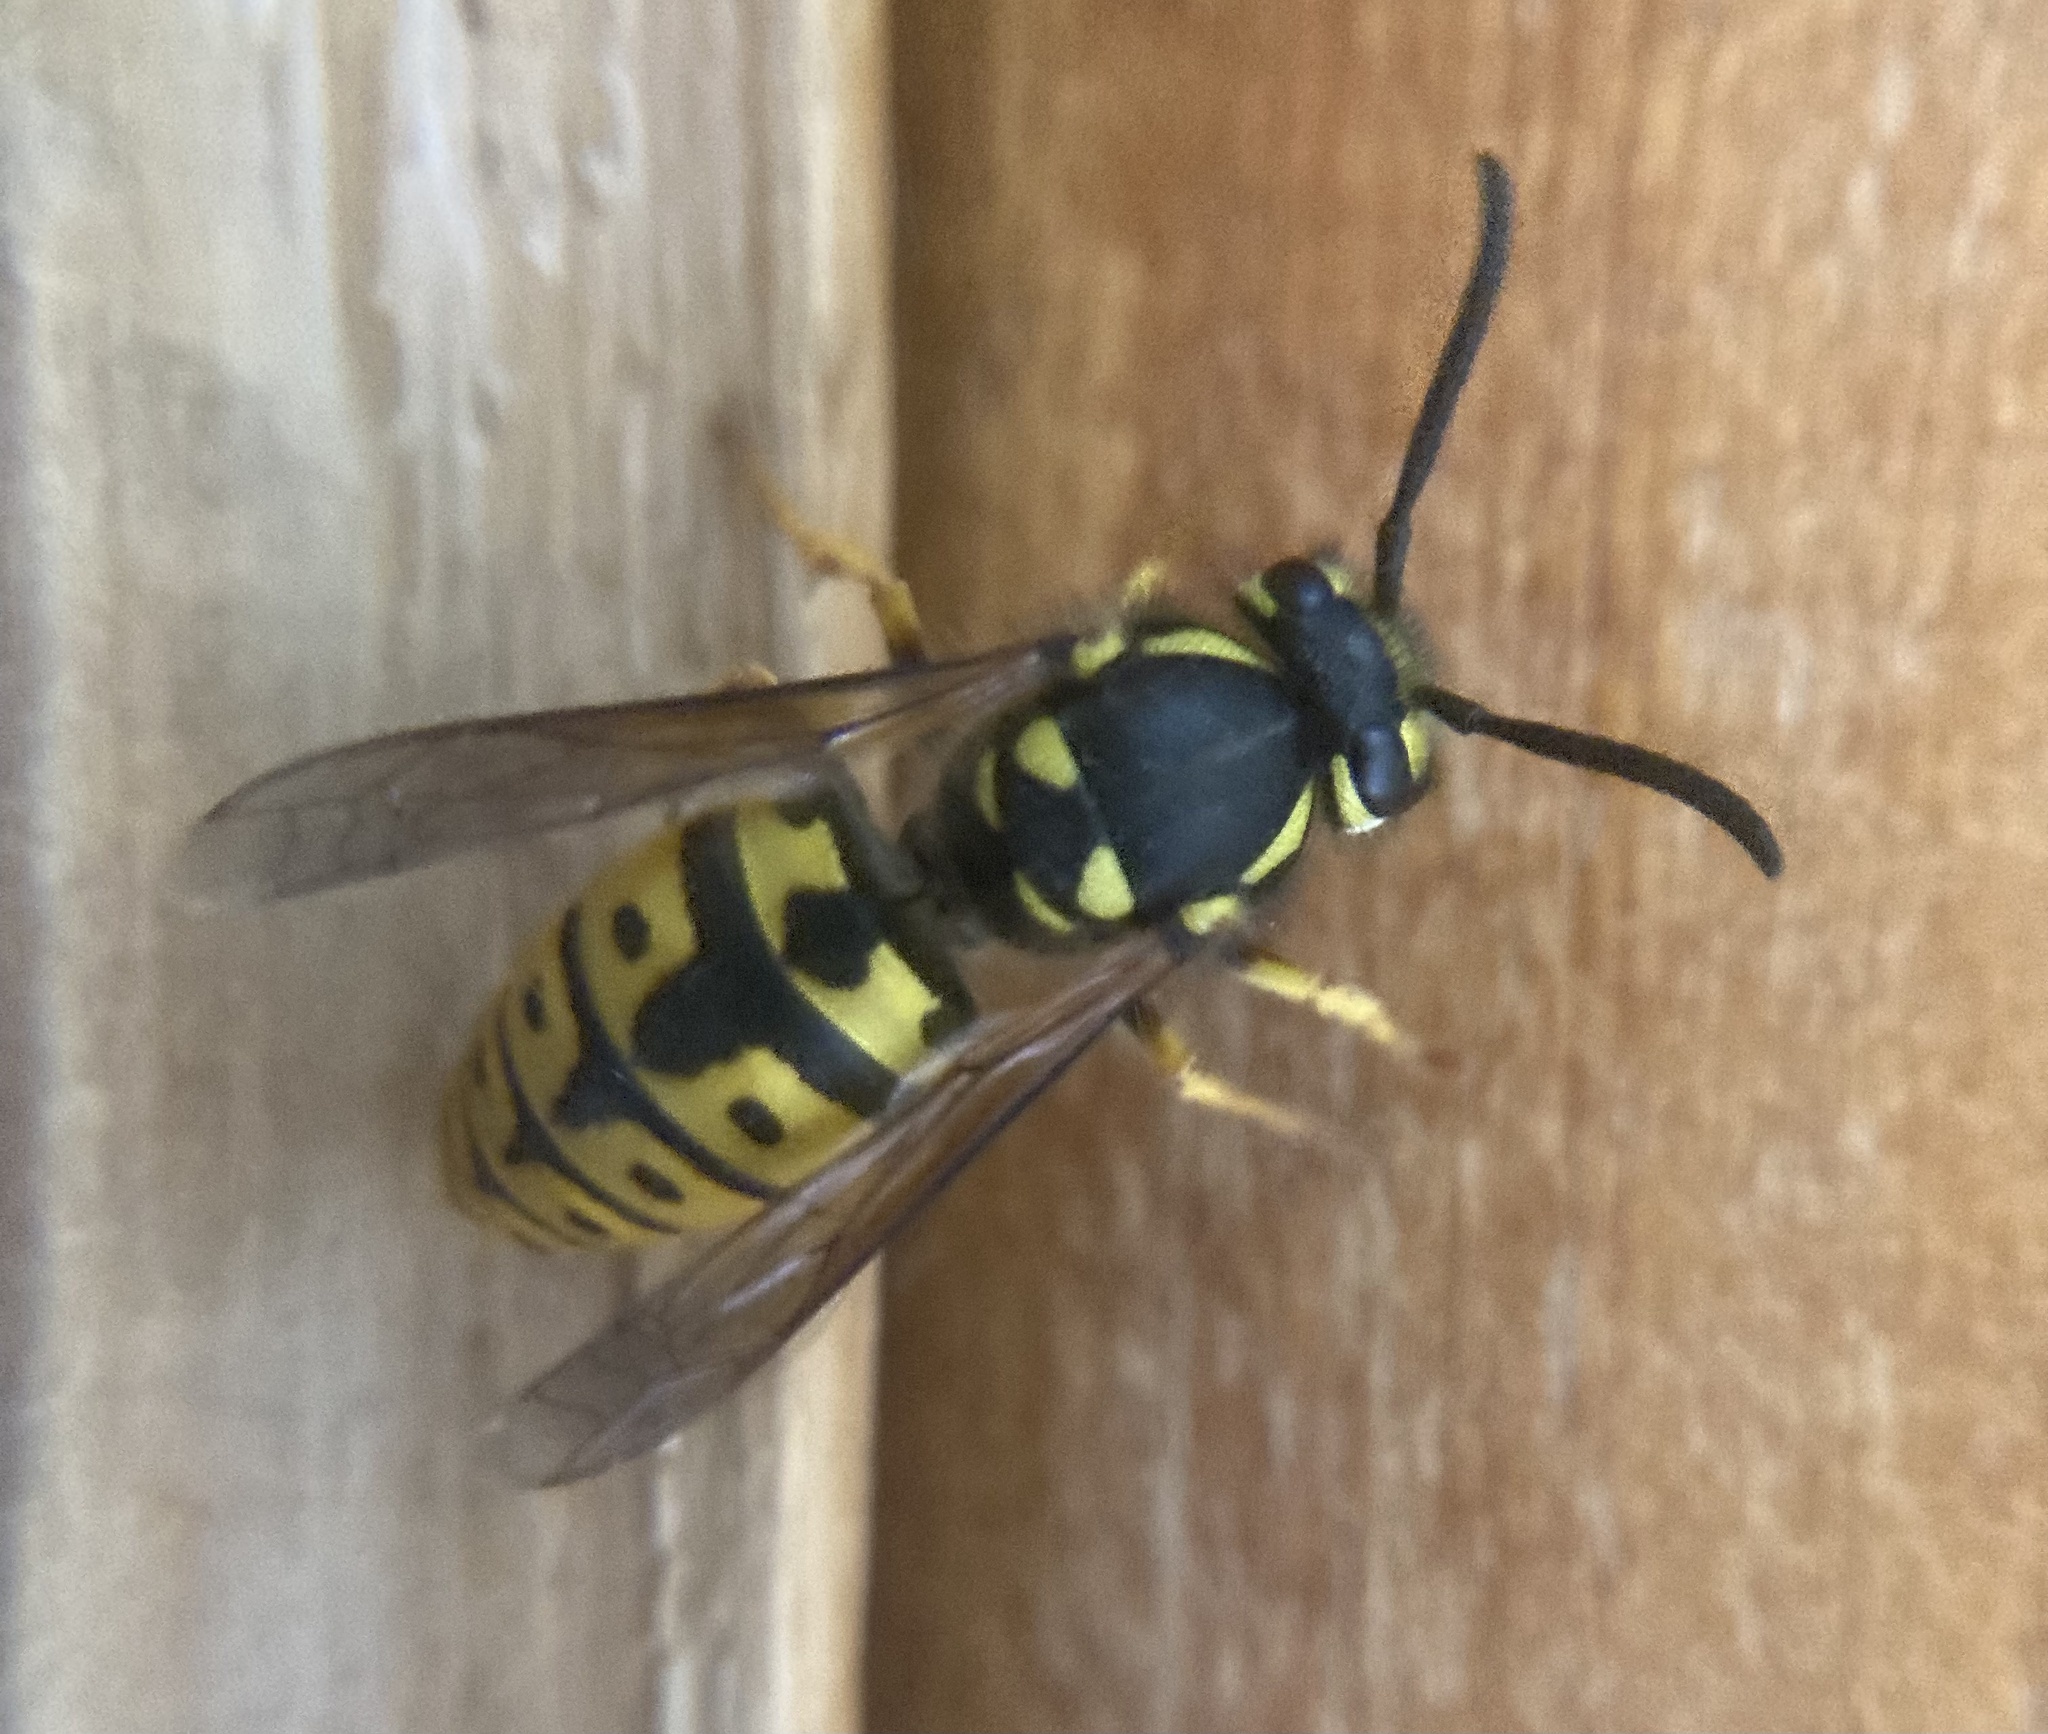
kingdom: Animalia
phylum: Arthropoda
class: Insecta
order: Hymenoptera
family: Vespidae
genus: Vespula
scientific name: Vespula germanica
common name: German wasp
